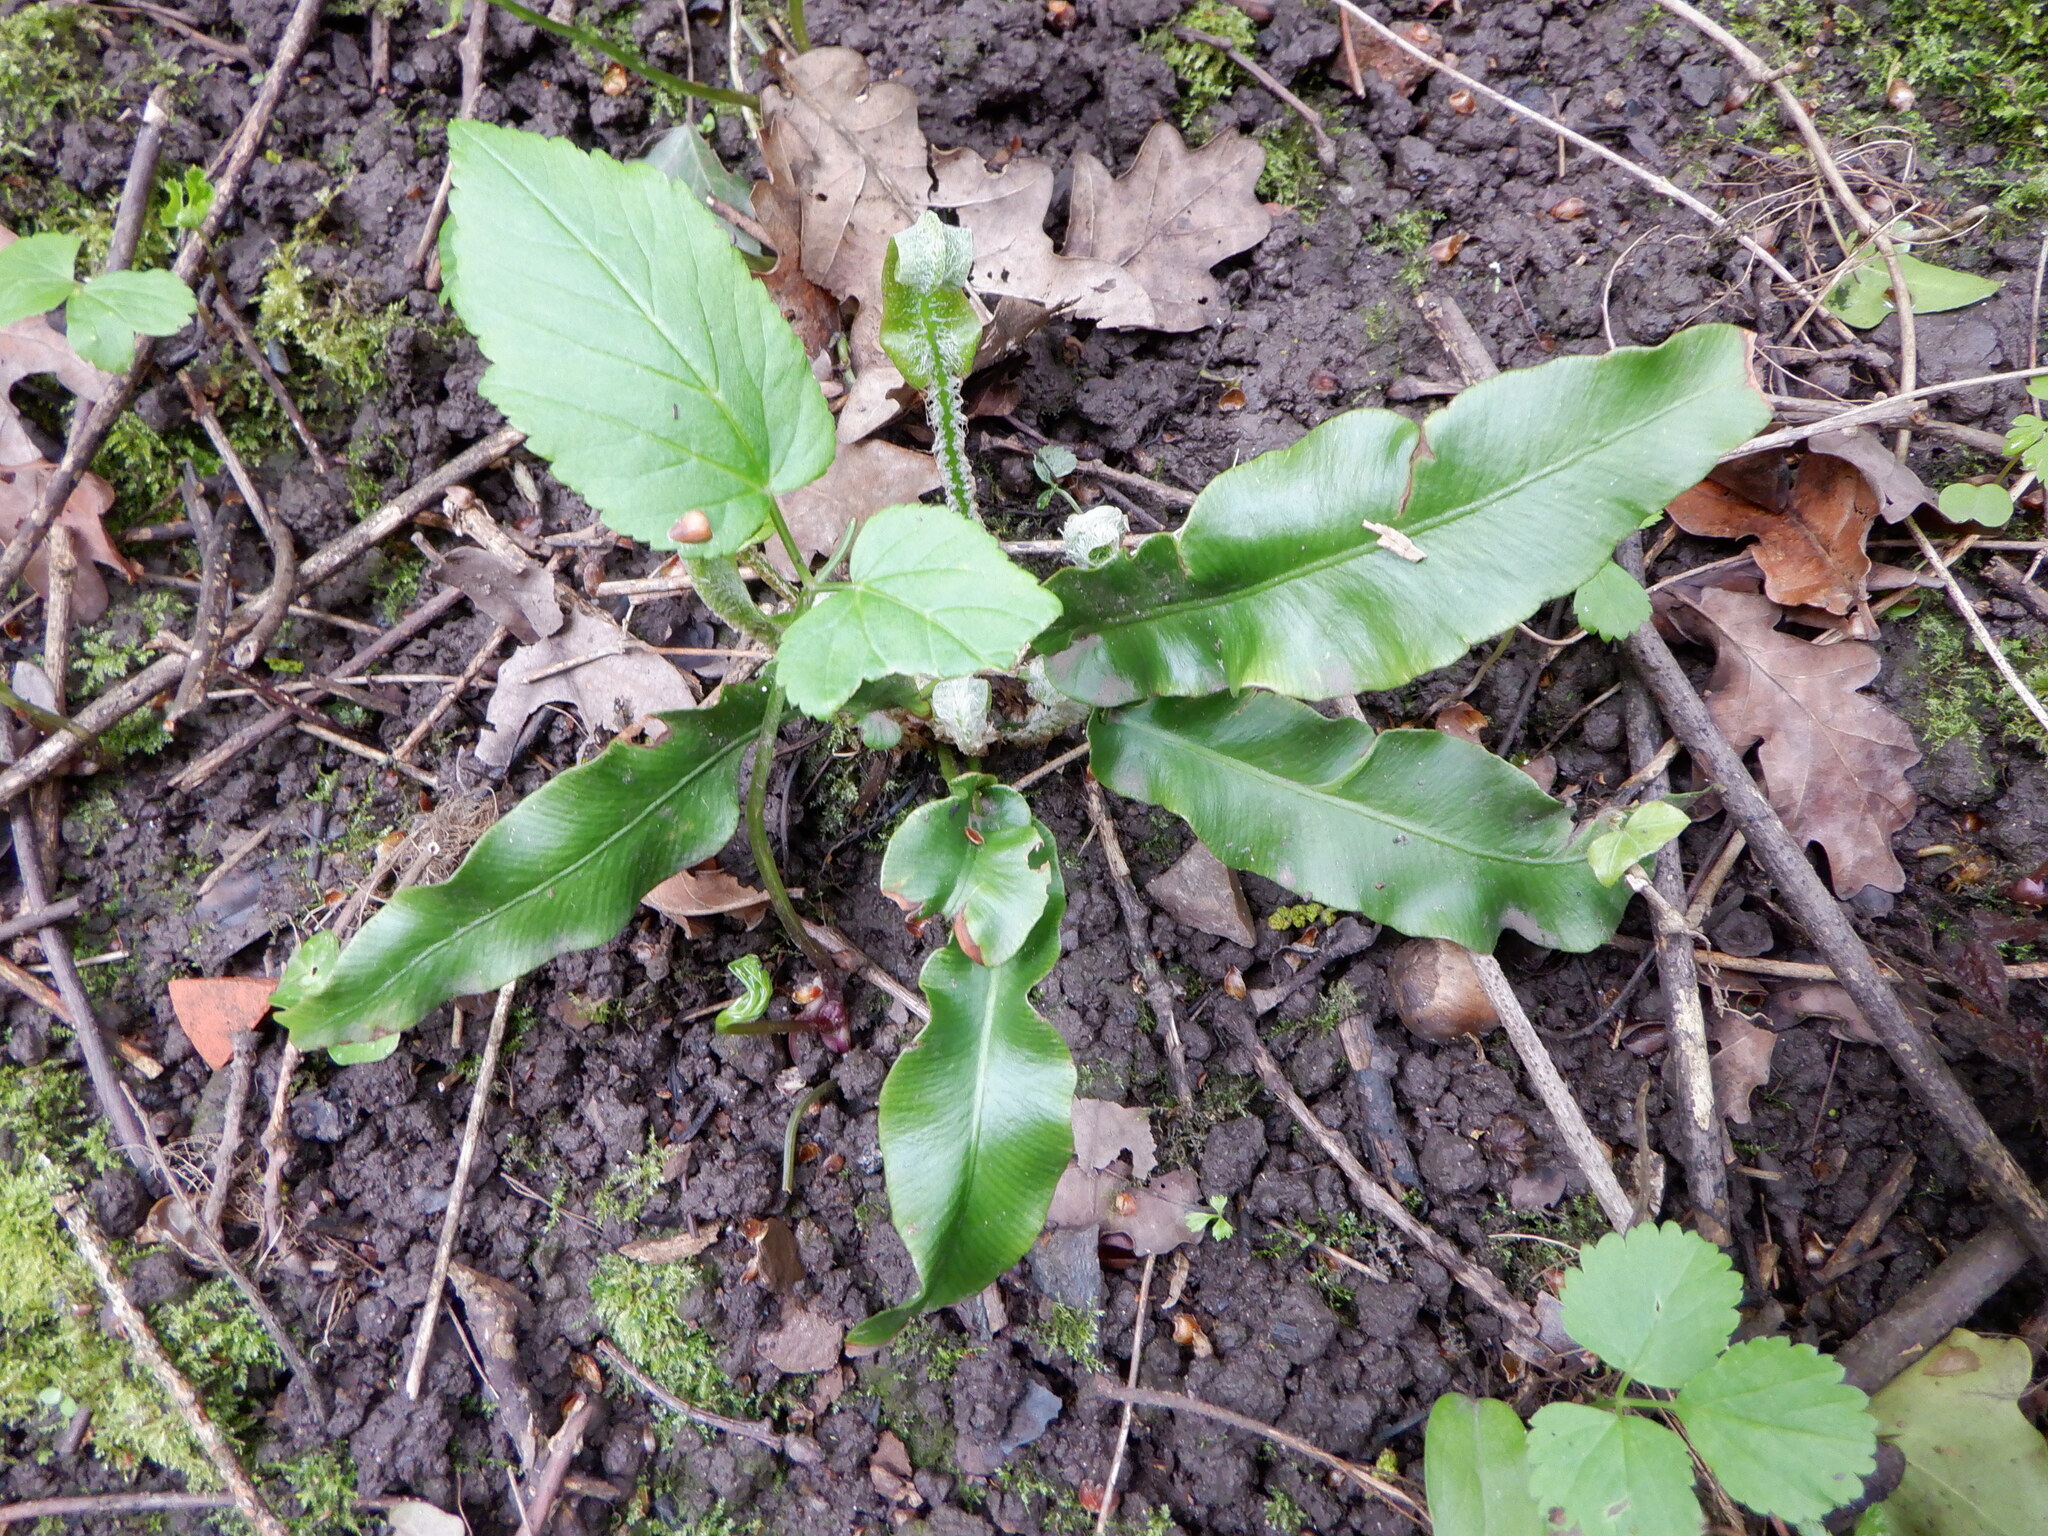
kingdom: Plantae
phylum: Tracheophyta
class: Polypodiopsida
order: Polypodiales
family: Aspleniaceae
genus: Asplenium
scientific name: Asplenium scolopendrium
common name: Hart's-tongue fern
